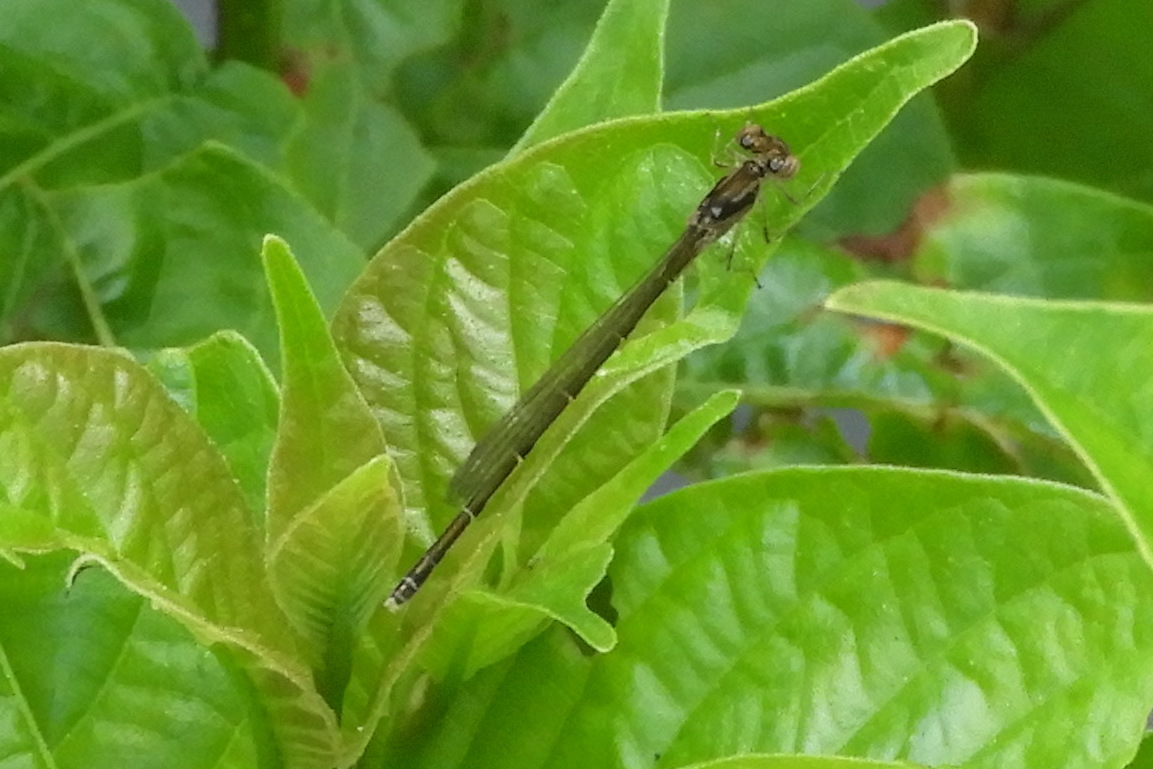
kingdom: Animalia
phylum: Arthropoda
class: Insecta
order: Odonata
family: Coenagrionidae
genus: Ischnura
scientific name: Ischnura posita
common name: Fragile forktail
